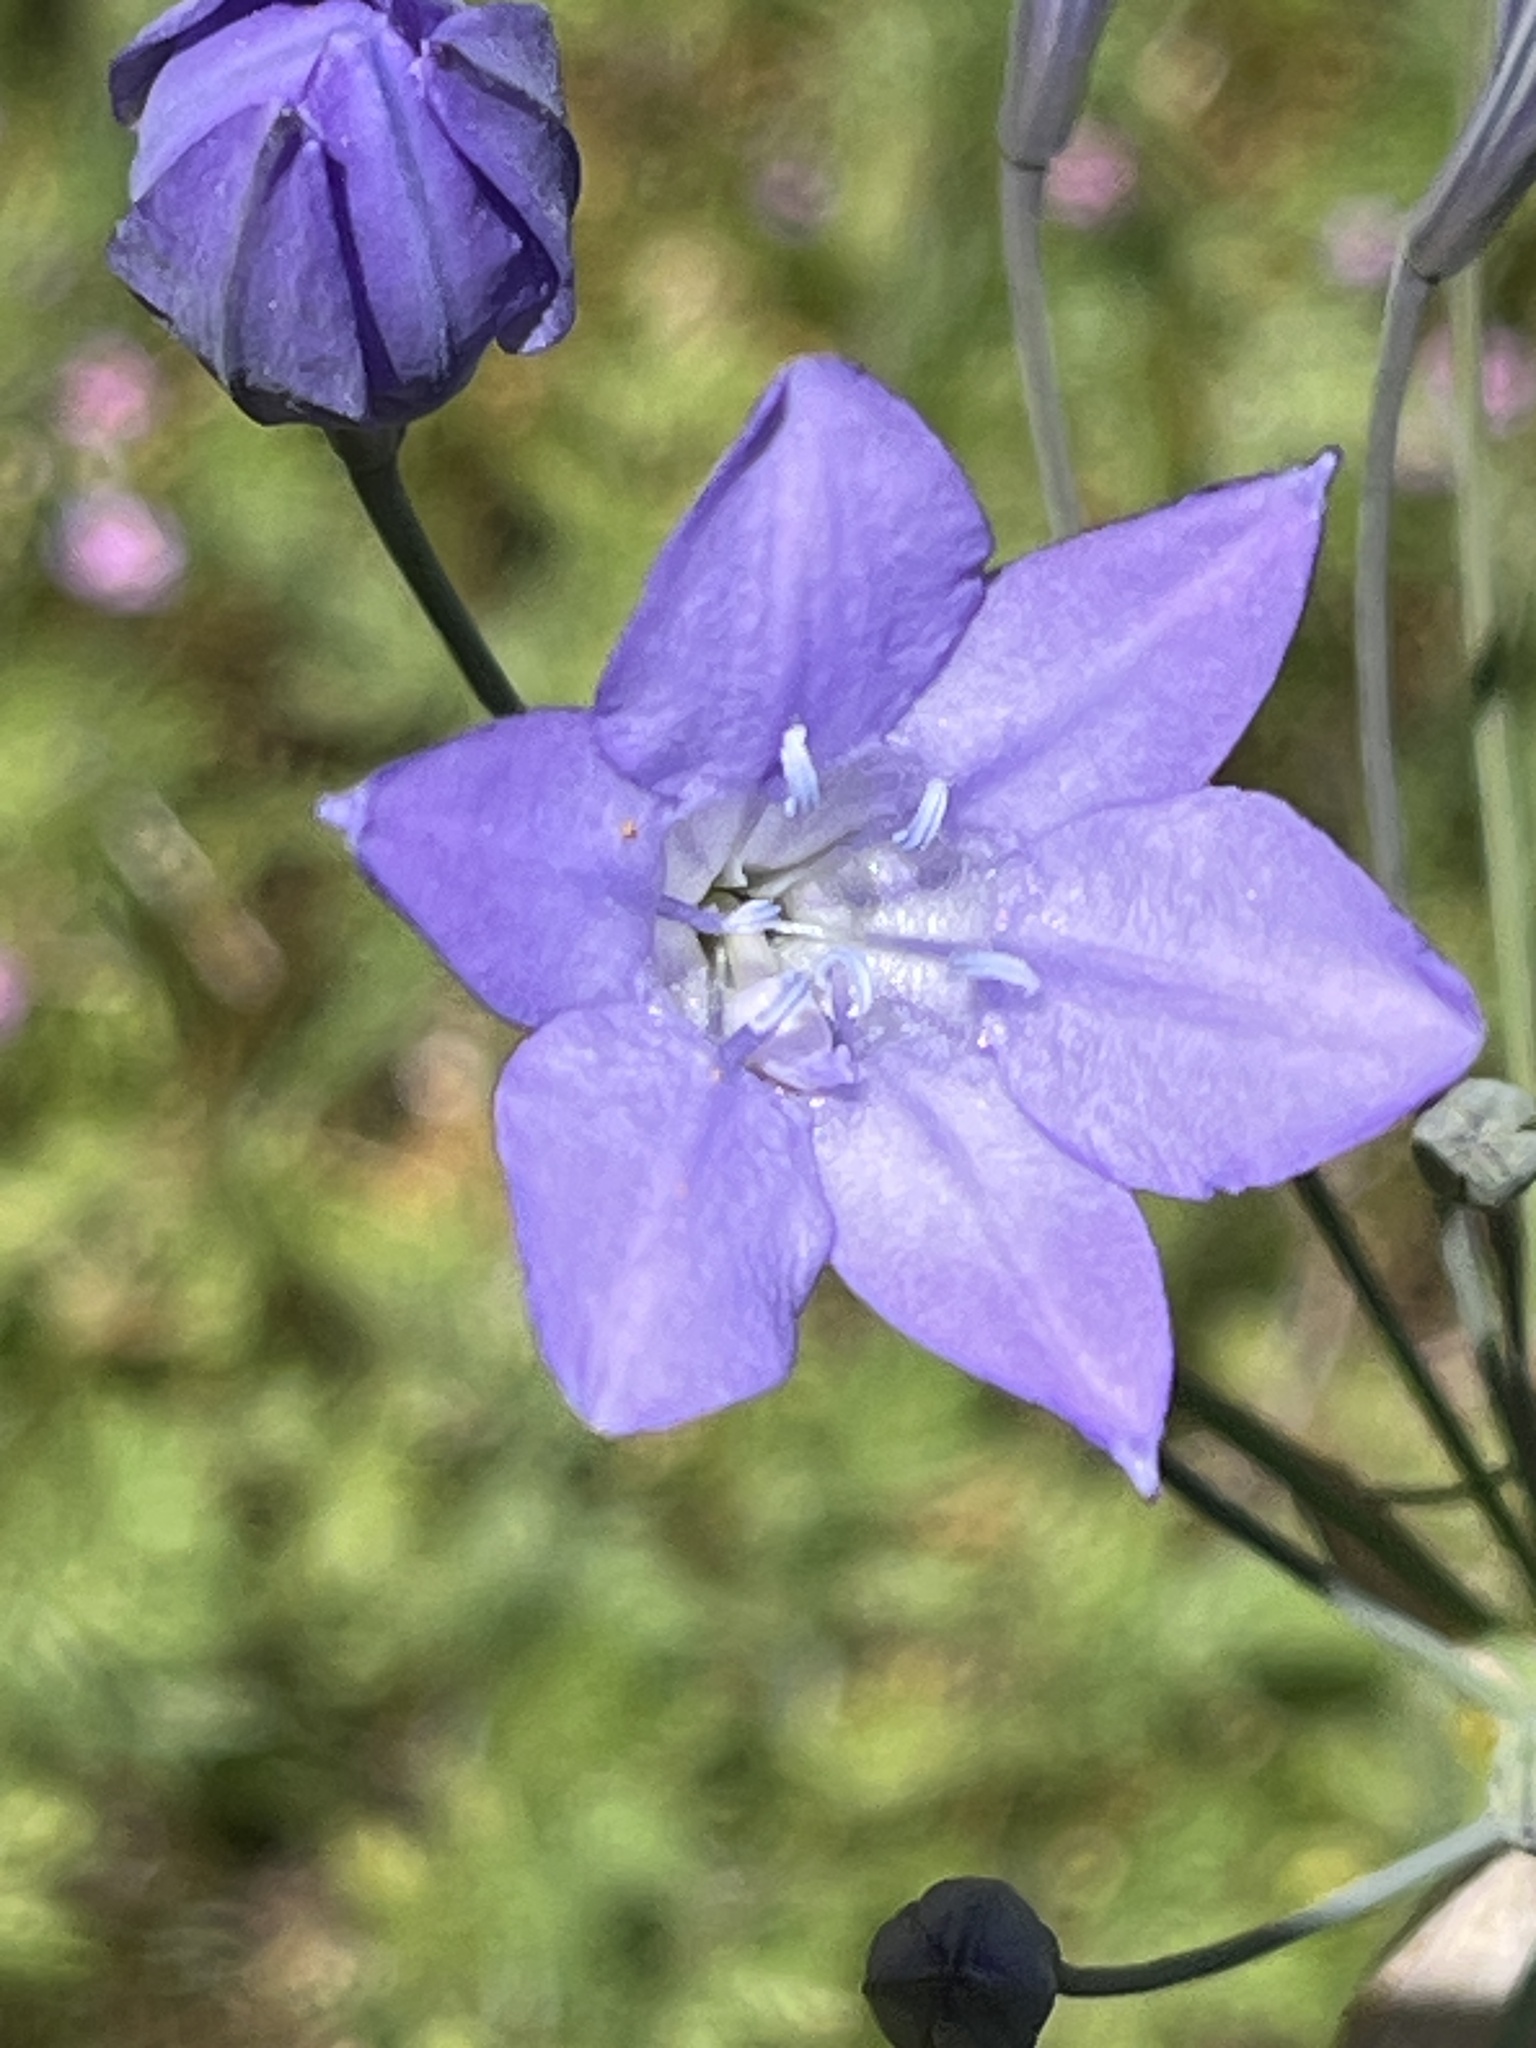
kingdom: Plantae
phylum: Tracheophyta
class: Liliopsida
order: Asparagales
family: Asparagaceae
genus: Triteleia
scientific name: Triteleia laxa
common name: Triplet-lily
